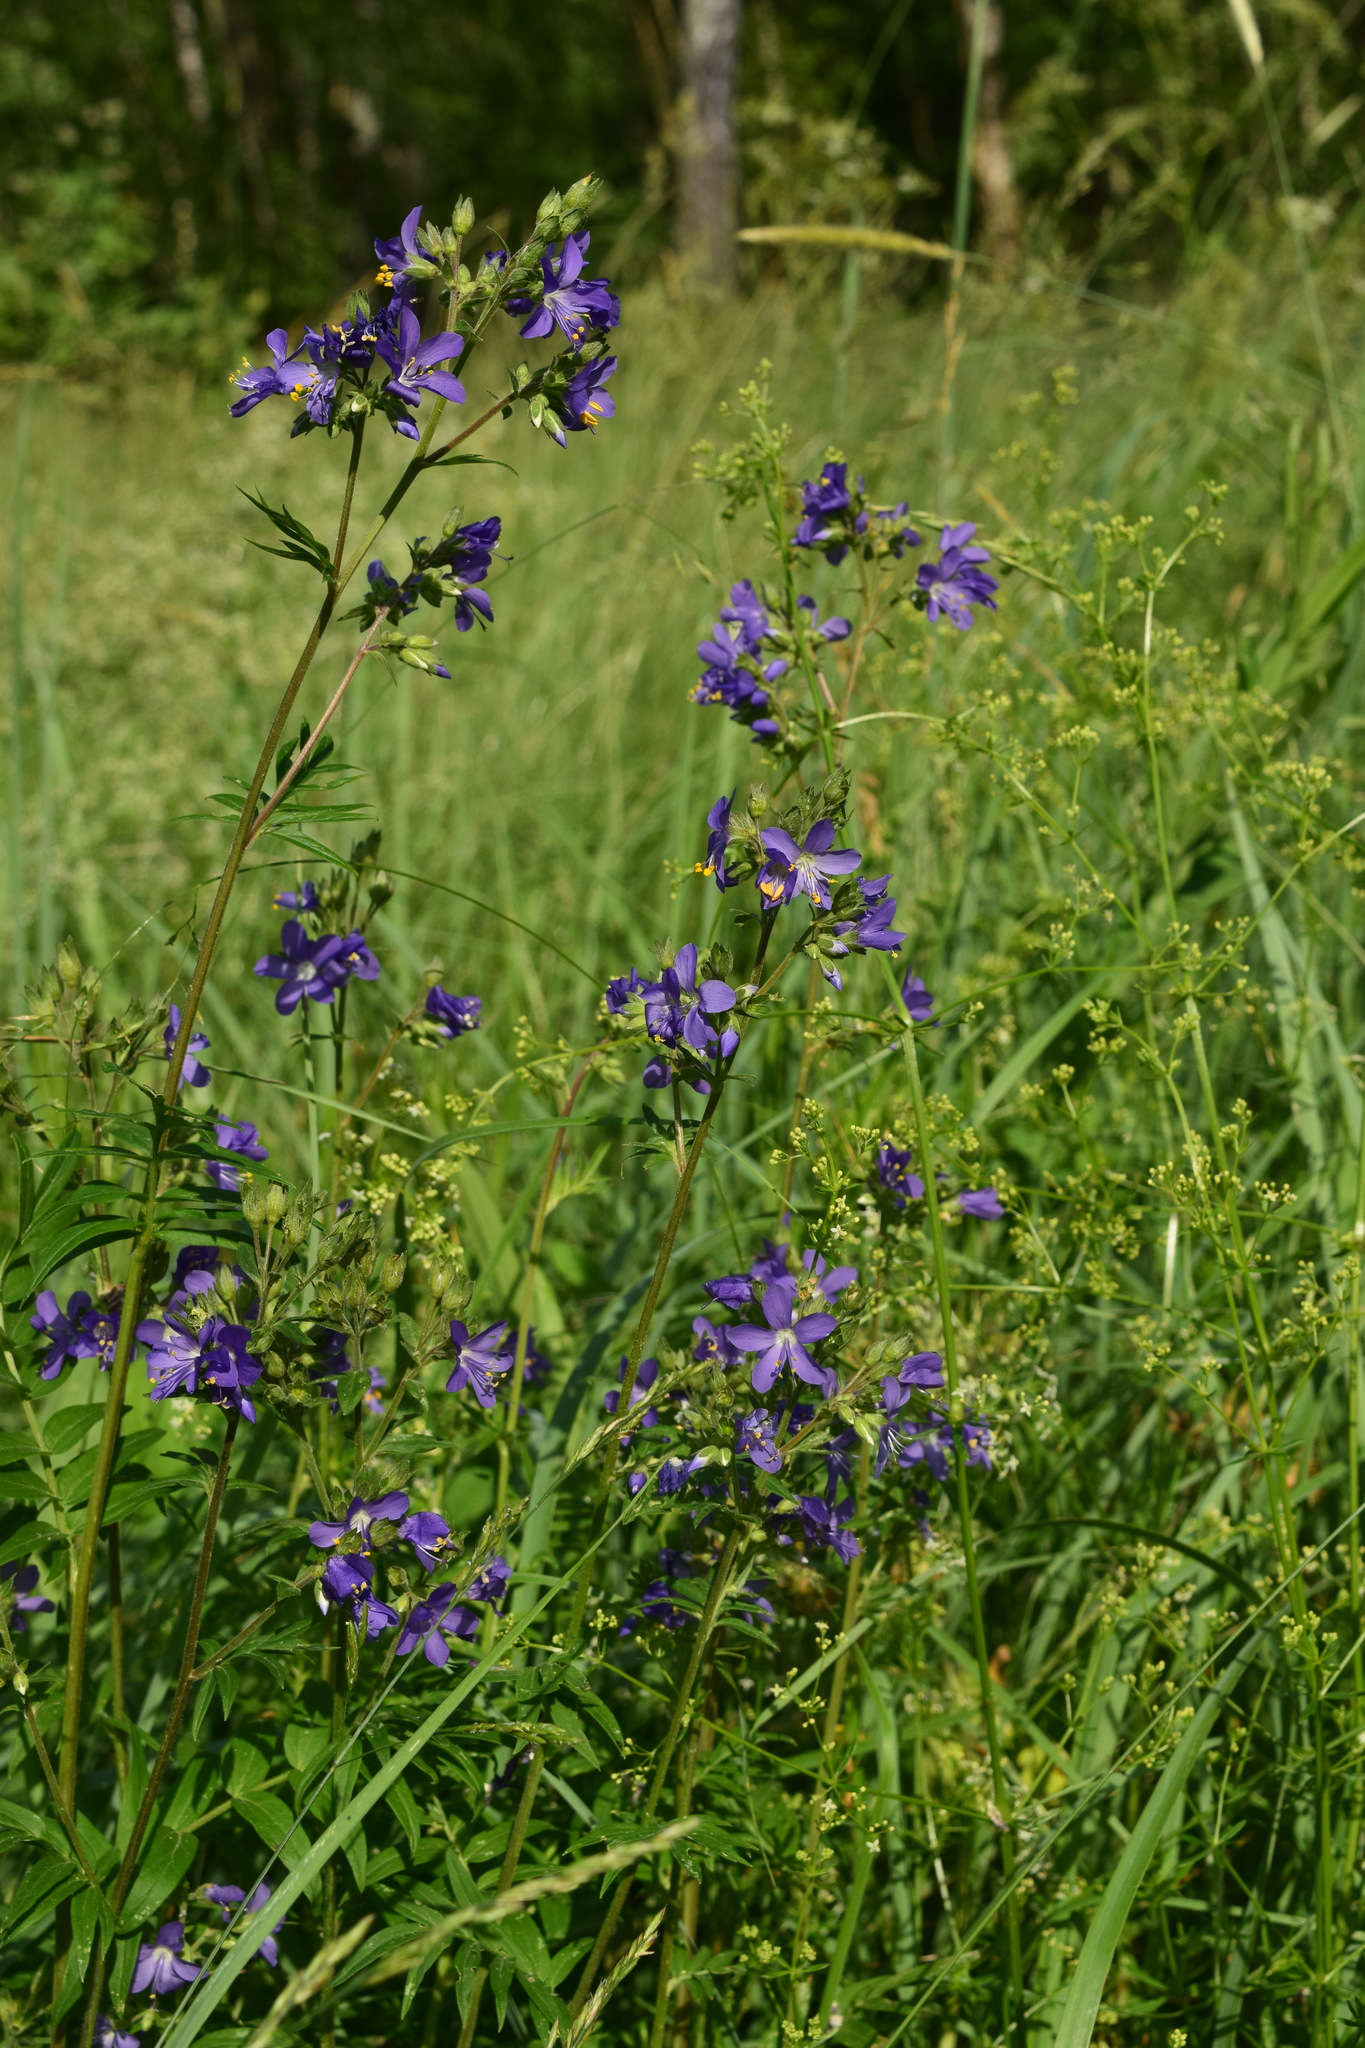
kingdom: Plantae
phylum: Tracheophyta
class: Magnoliopsida
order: Ericales
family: Polemoniaceae
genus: Polemonium
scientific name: Polemonium caeruleum
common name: Jacob's-ladder
